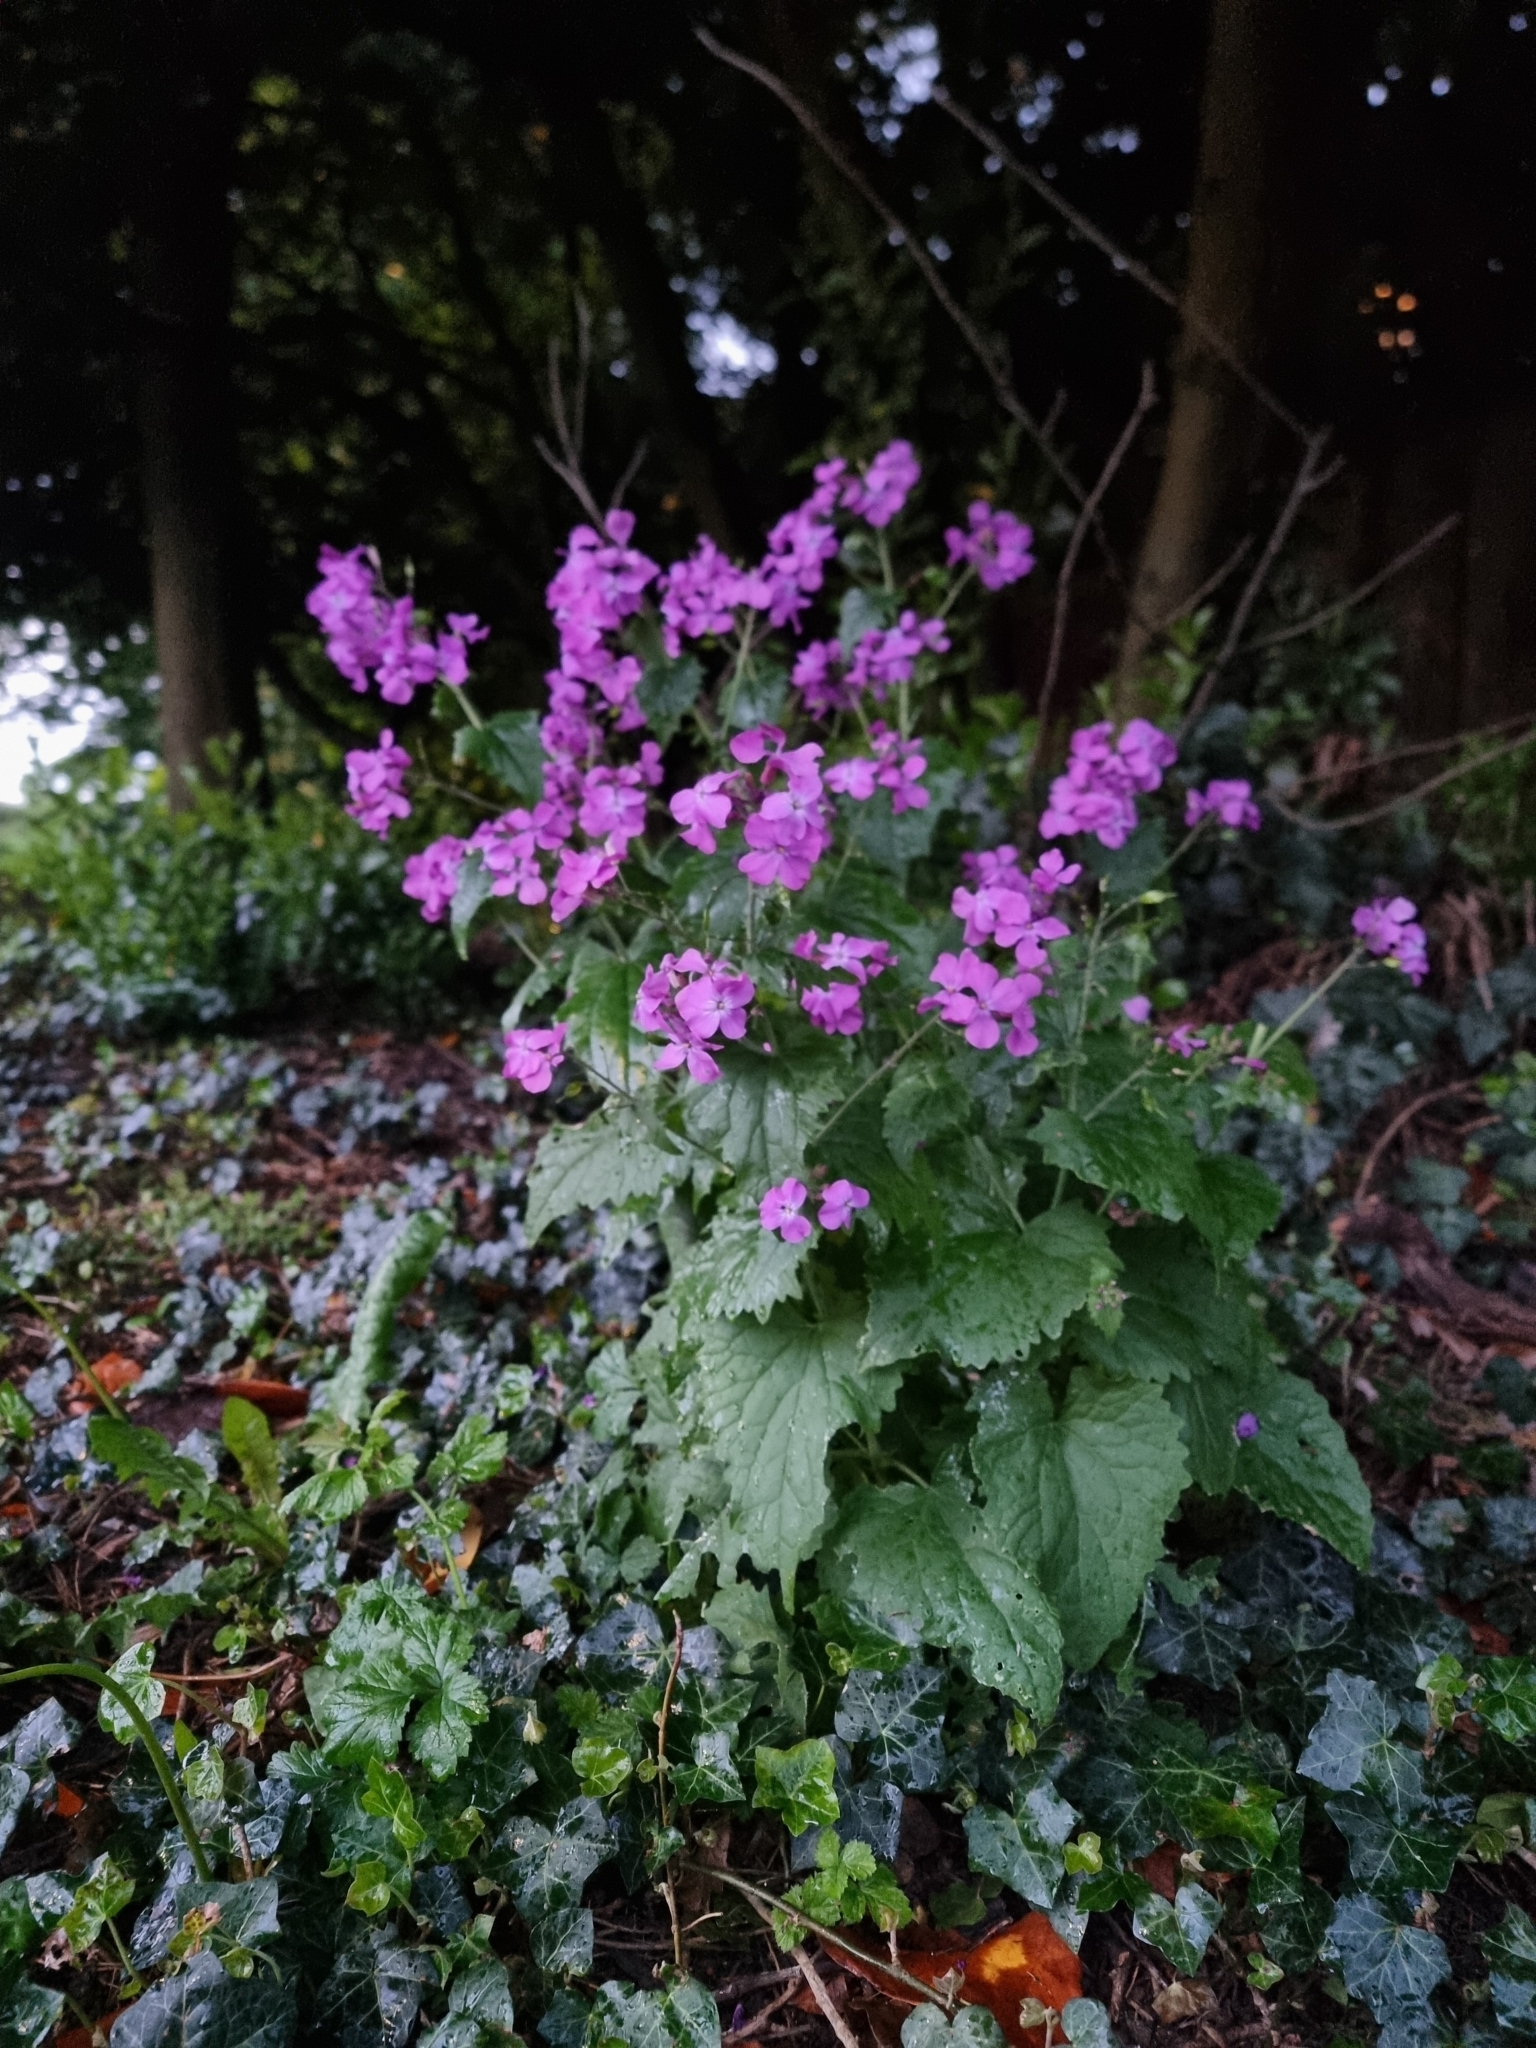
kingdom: Plantae
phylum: Tracheophyta
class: Magnoliopsida
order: Brassicales
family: Brassicaceae
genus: Lunaria
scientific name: Lunaria annua
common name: Honesty
